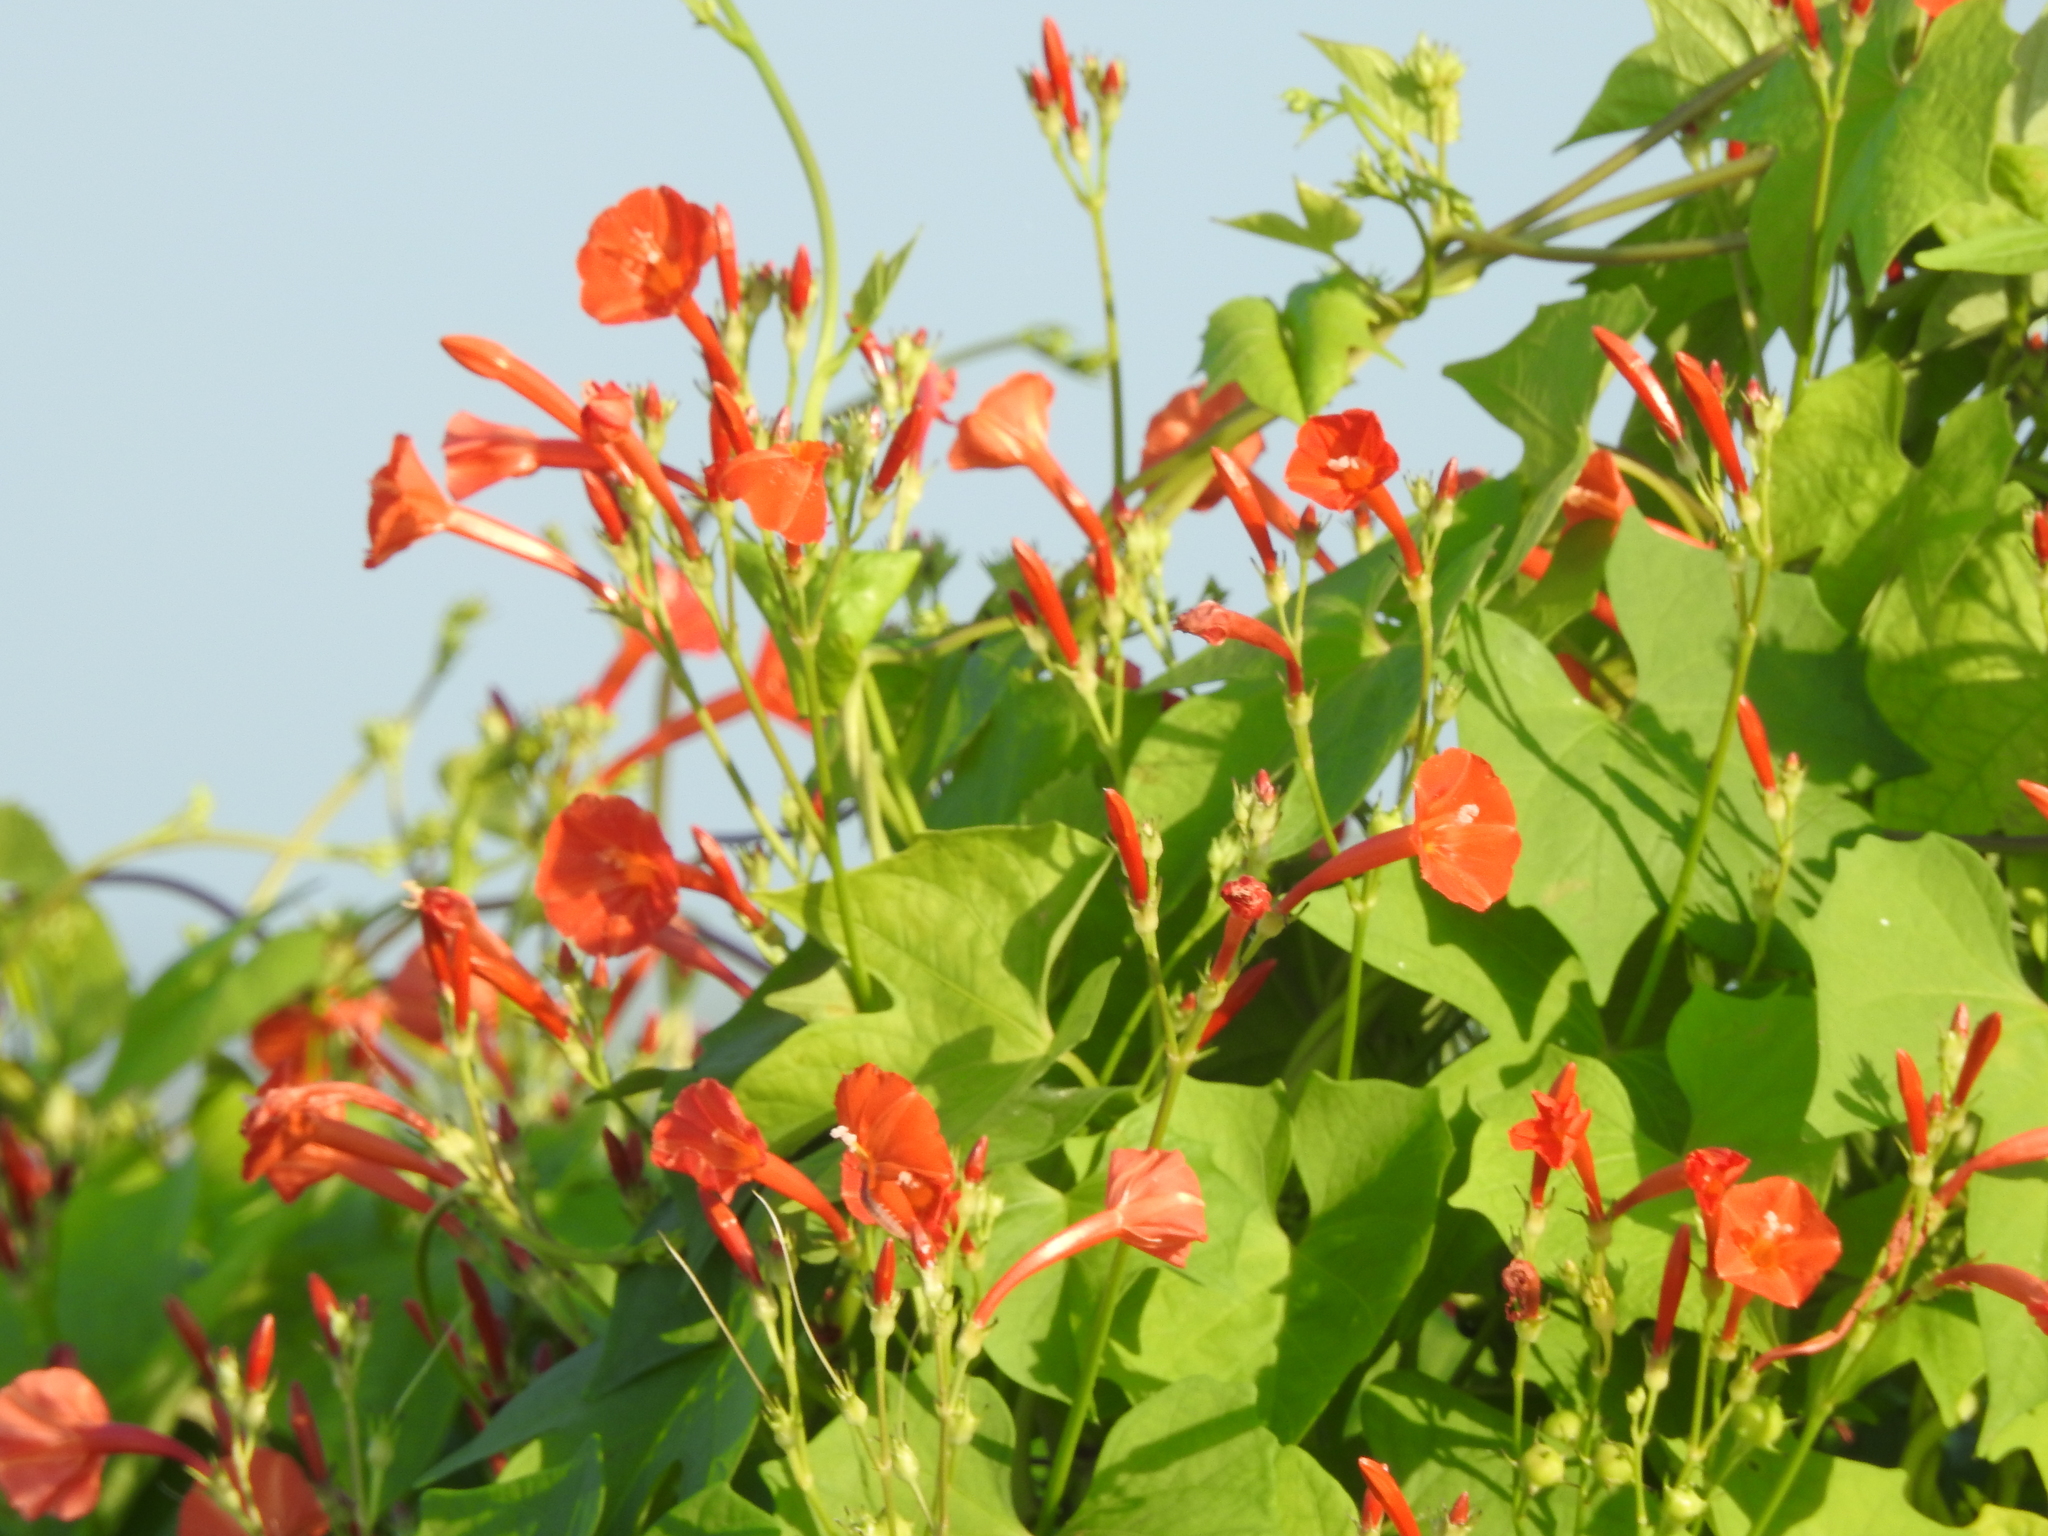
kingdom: Plantae
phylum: Tracheophyta
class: Magnoliopsida
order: Solanales
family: Convolvulaceae
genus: Ipomoea
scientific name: Ipomoea hederifolia
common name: Ivy-leaf morning-glory
